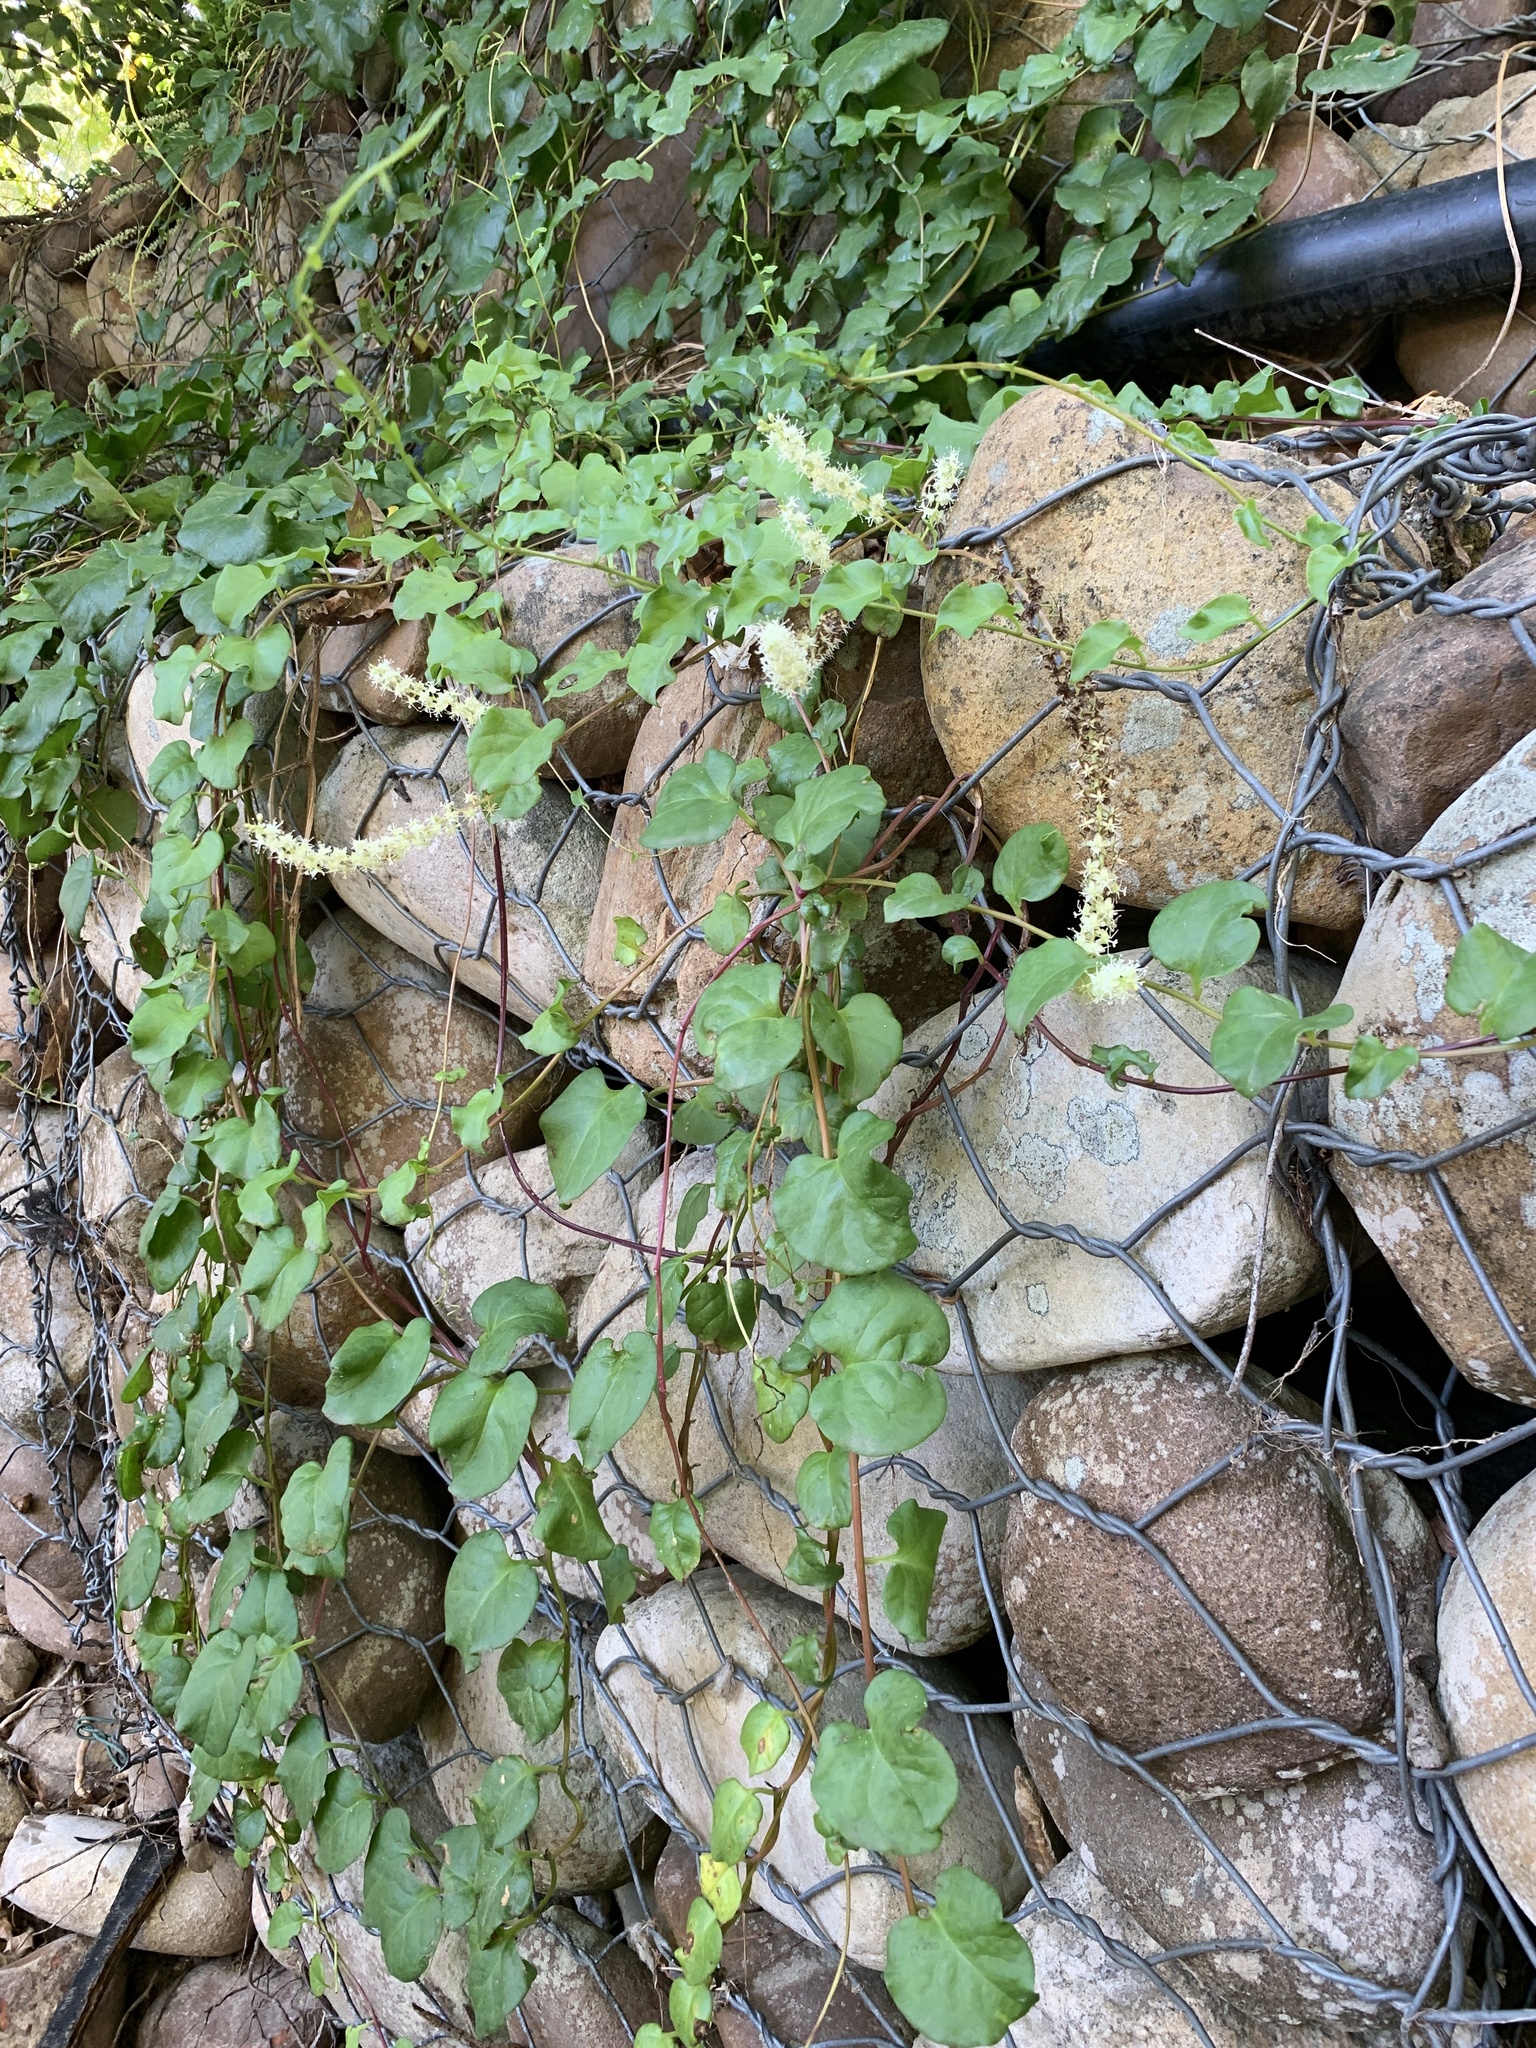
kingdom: Plantae
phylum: Tracheophyta
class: Magnoliopsida
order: Caryophyllales
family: Basellaceae
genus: Anredera
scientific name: Anredera cordifolia
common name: Heartleaf madeiravine
